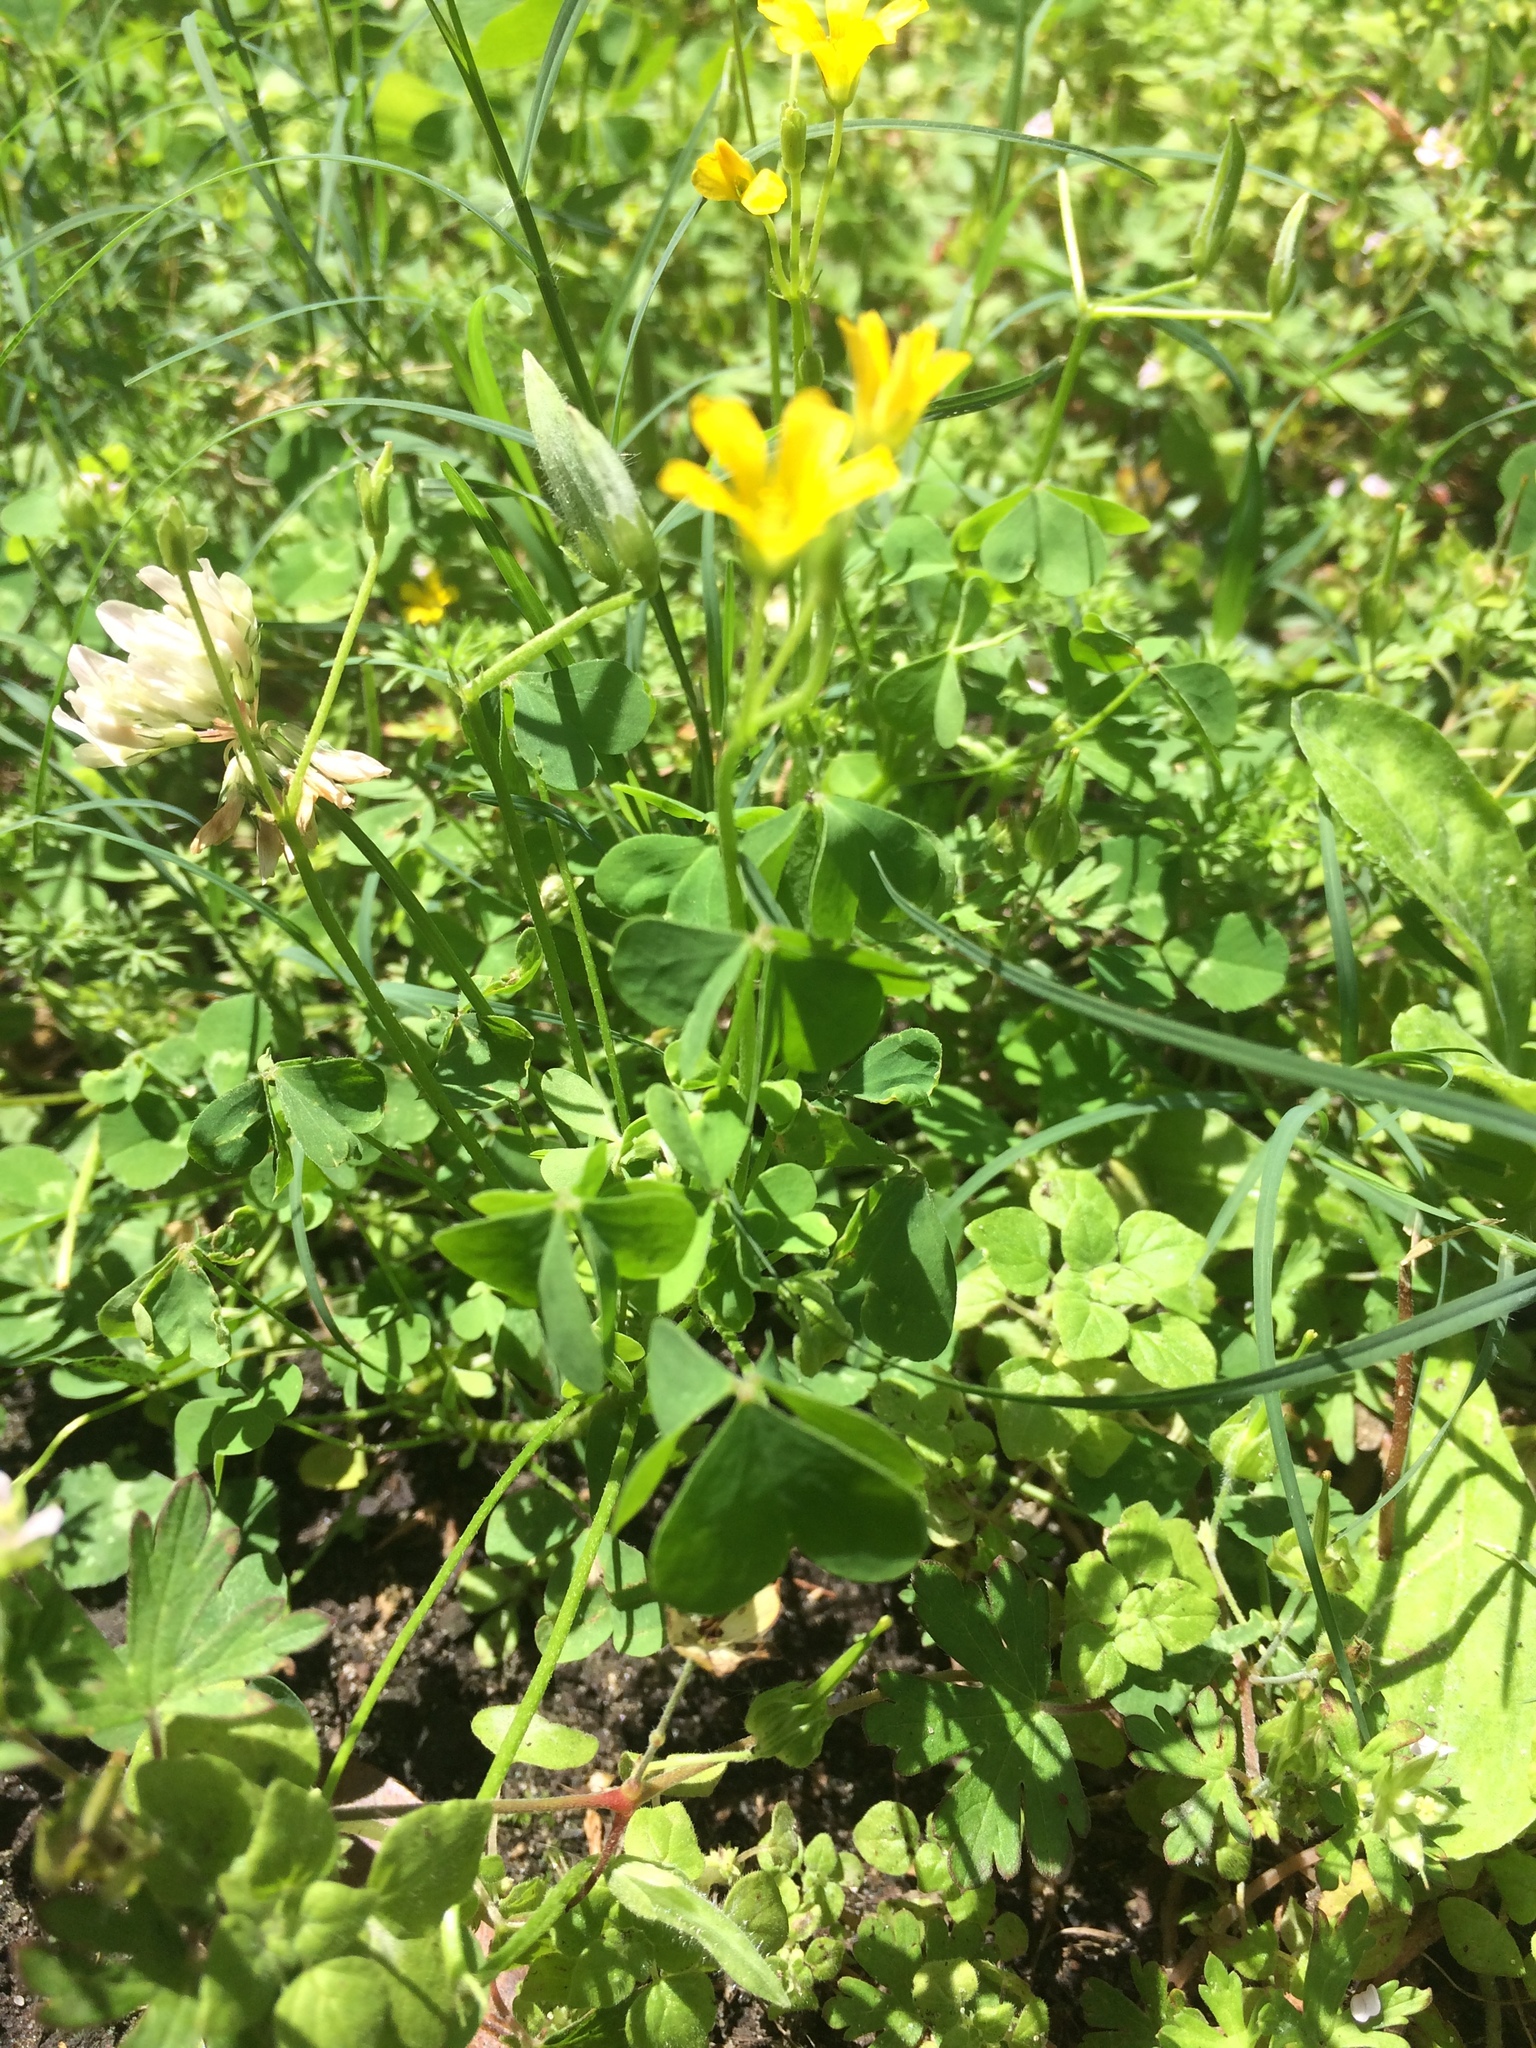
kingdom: Plantae
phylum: Tracheophyta
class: Magnoliopsida
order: Oxalidales
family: Oxalidaceae
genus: Oxalis
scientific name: Oxalis corniculata
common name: Procumbent yellow-sorrel
